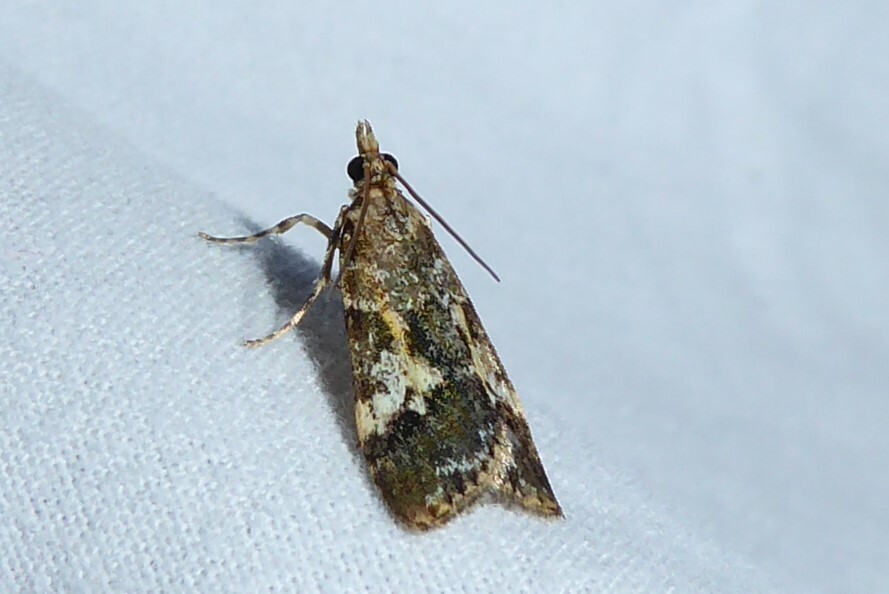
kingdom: Animalia
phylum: Arthropoda
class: Insecta
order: Lepidoptera
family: Crambidae
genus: Eudonia
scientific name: Eudonia characta
